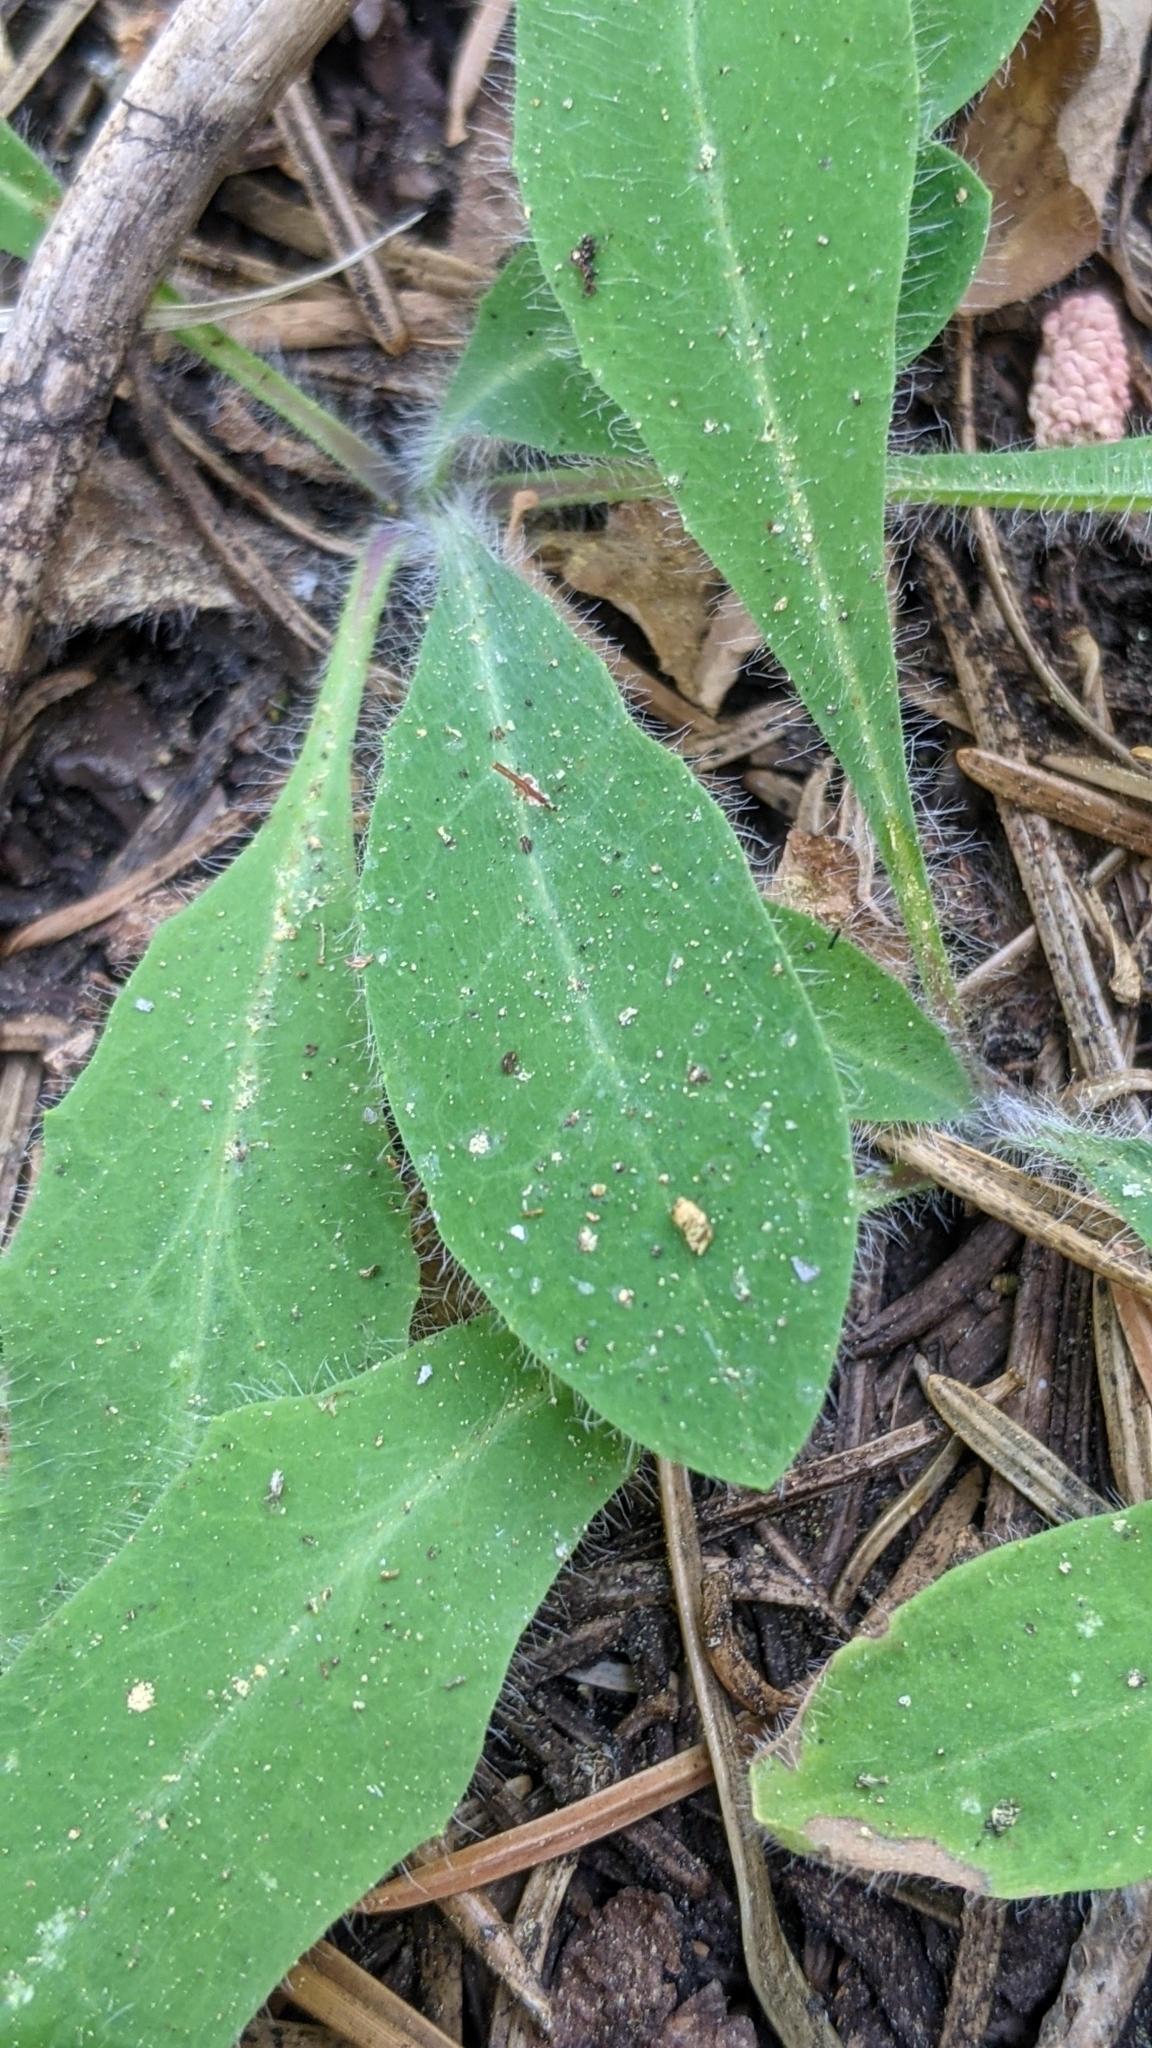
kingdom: Plantae
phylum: Tracheophyta
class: Magnoliopsida
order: Asterales
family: Asteraceae
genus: Hieracium
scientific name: Hieracium albiflorum
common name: White hawkweed
